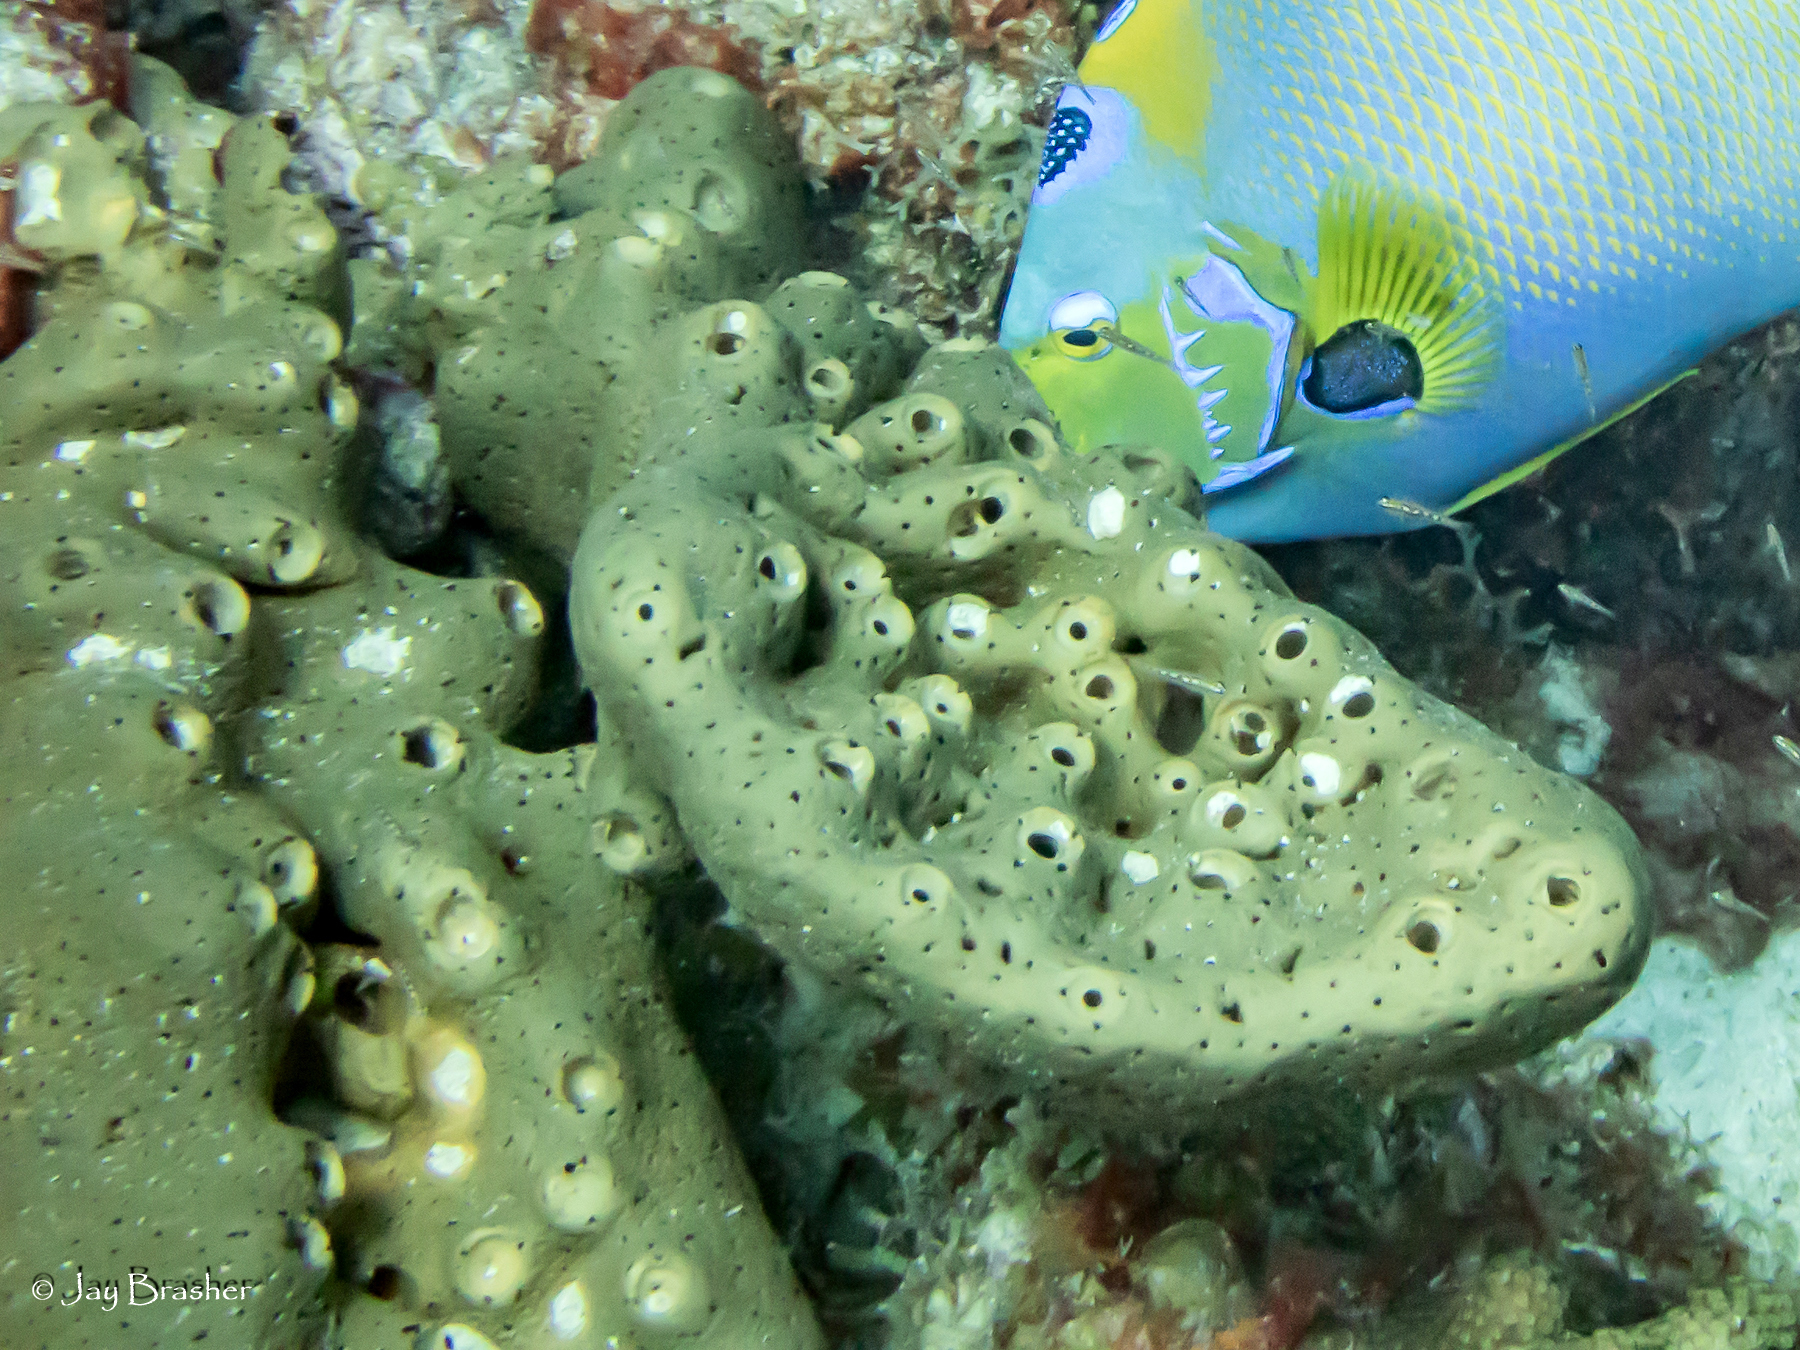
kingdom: Animalia
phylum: Porifera
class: Demospongiae
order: Agelasida
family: Agelasidae
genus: Agelas
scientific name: Agelas conifera
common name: Brown tube sponge
